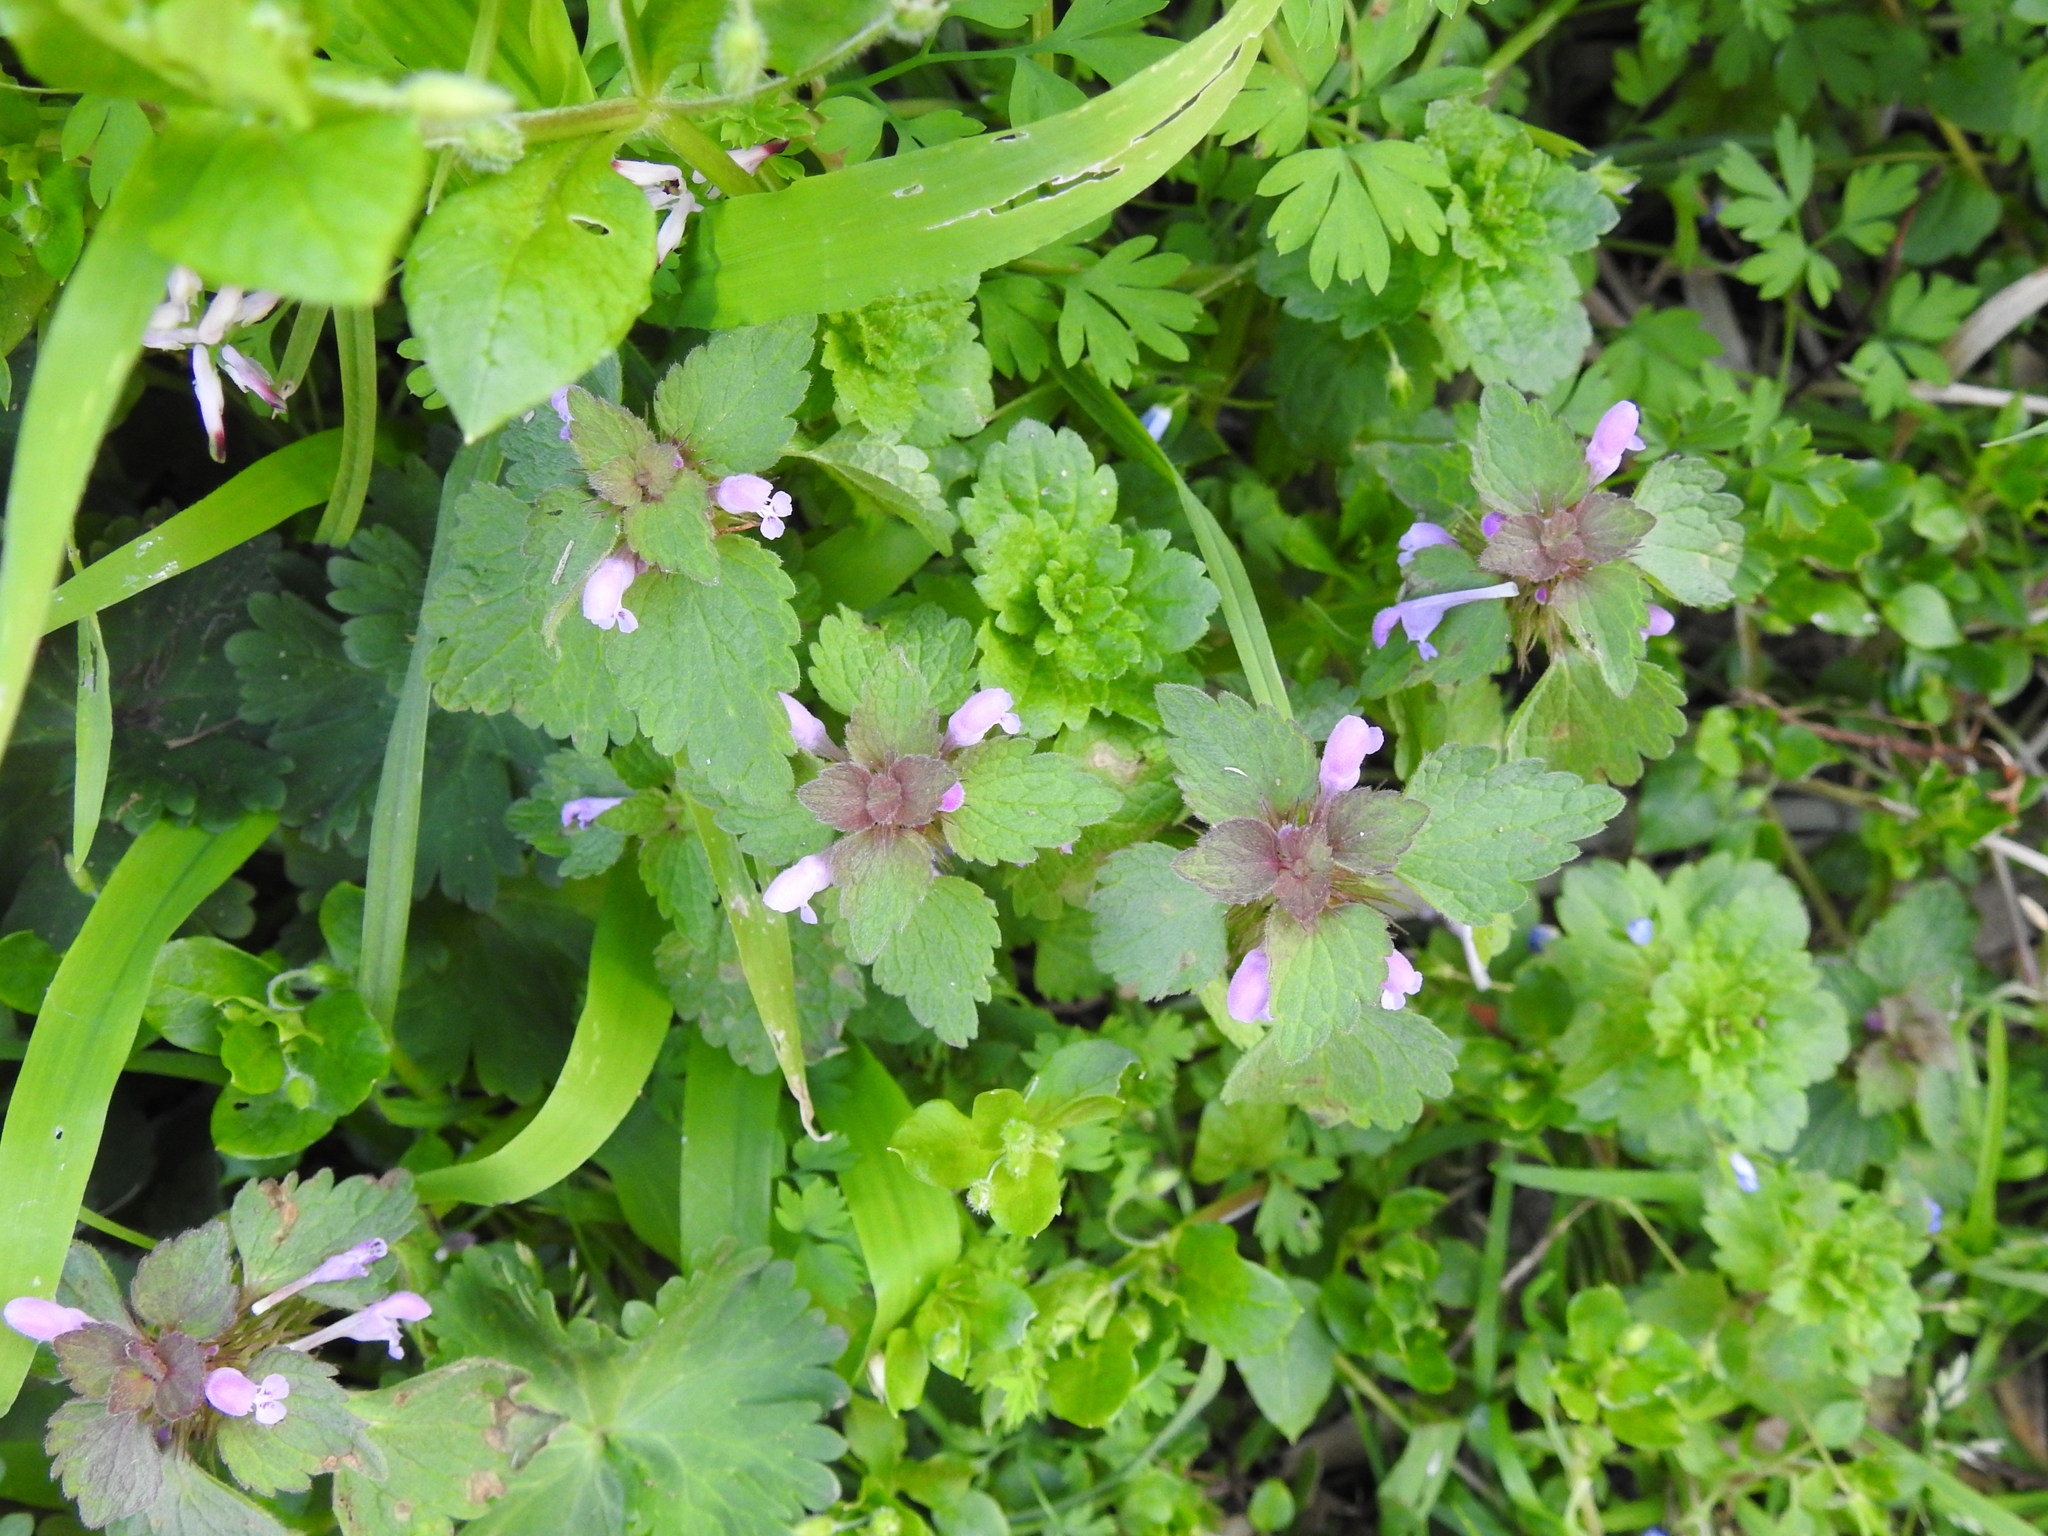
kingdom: Plantae
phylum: Tracheophyta
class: Magnoliopsida
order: Lamiales
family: Lamiaceae
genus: Lamium
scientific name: Lamium purpureum
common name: Red dead-nettle
